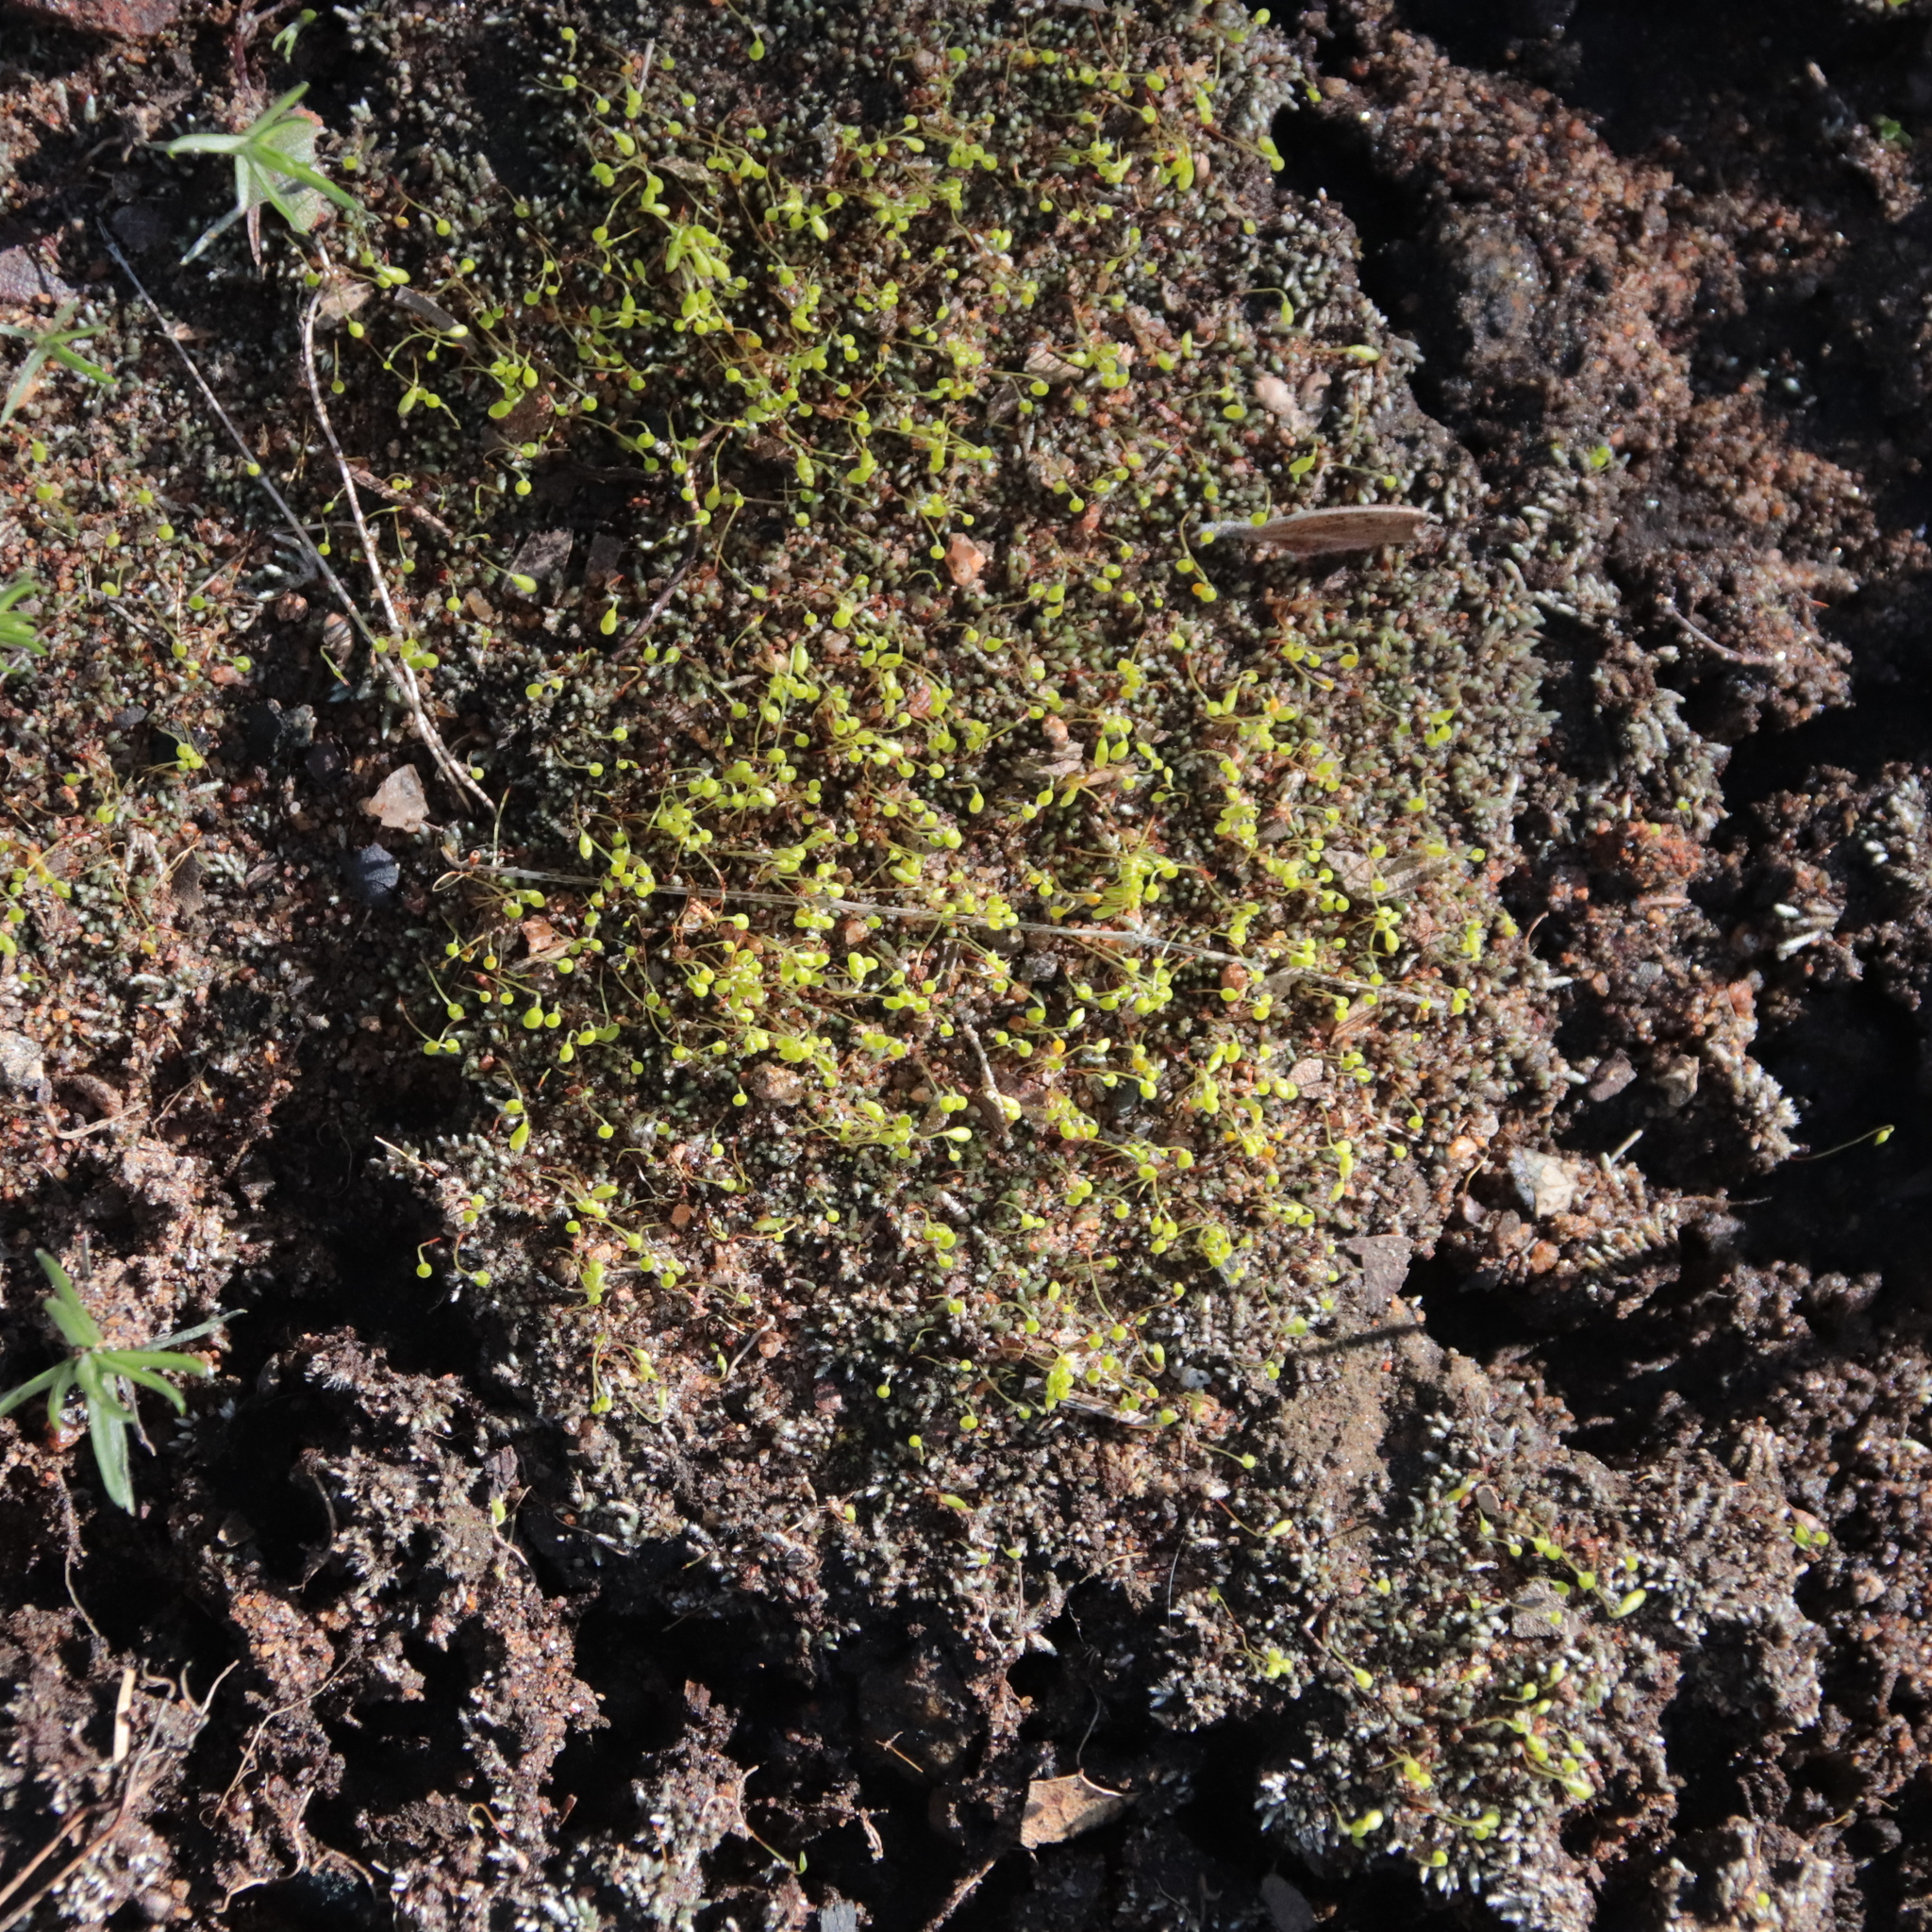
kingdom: Plantae
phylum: Bryophyta
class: Bryopsida
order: Bryales
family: Bryaceae
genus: Bryum
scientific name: Bryum argenteum
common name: Silver-moss
